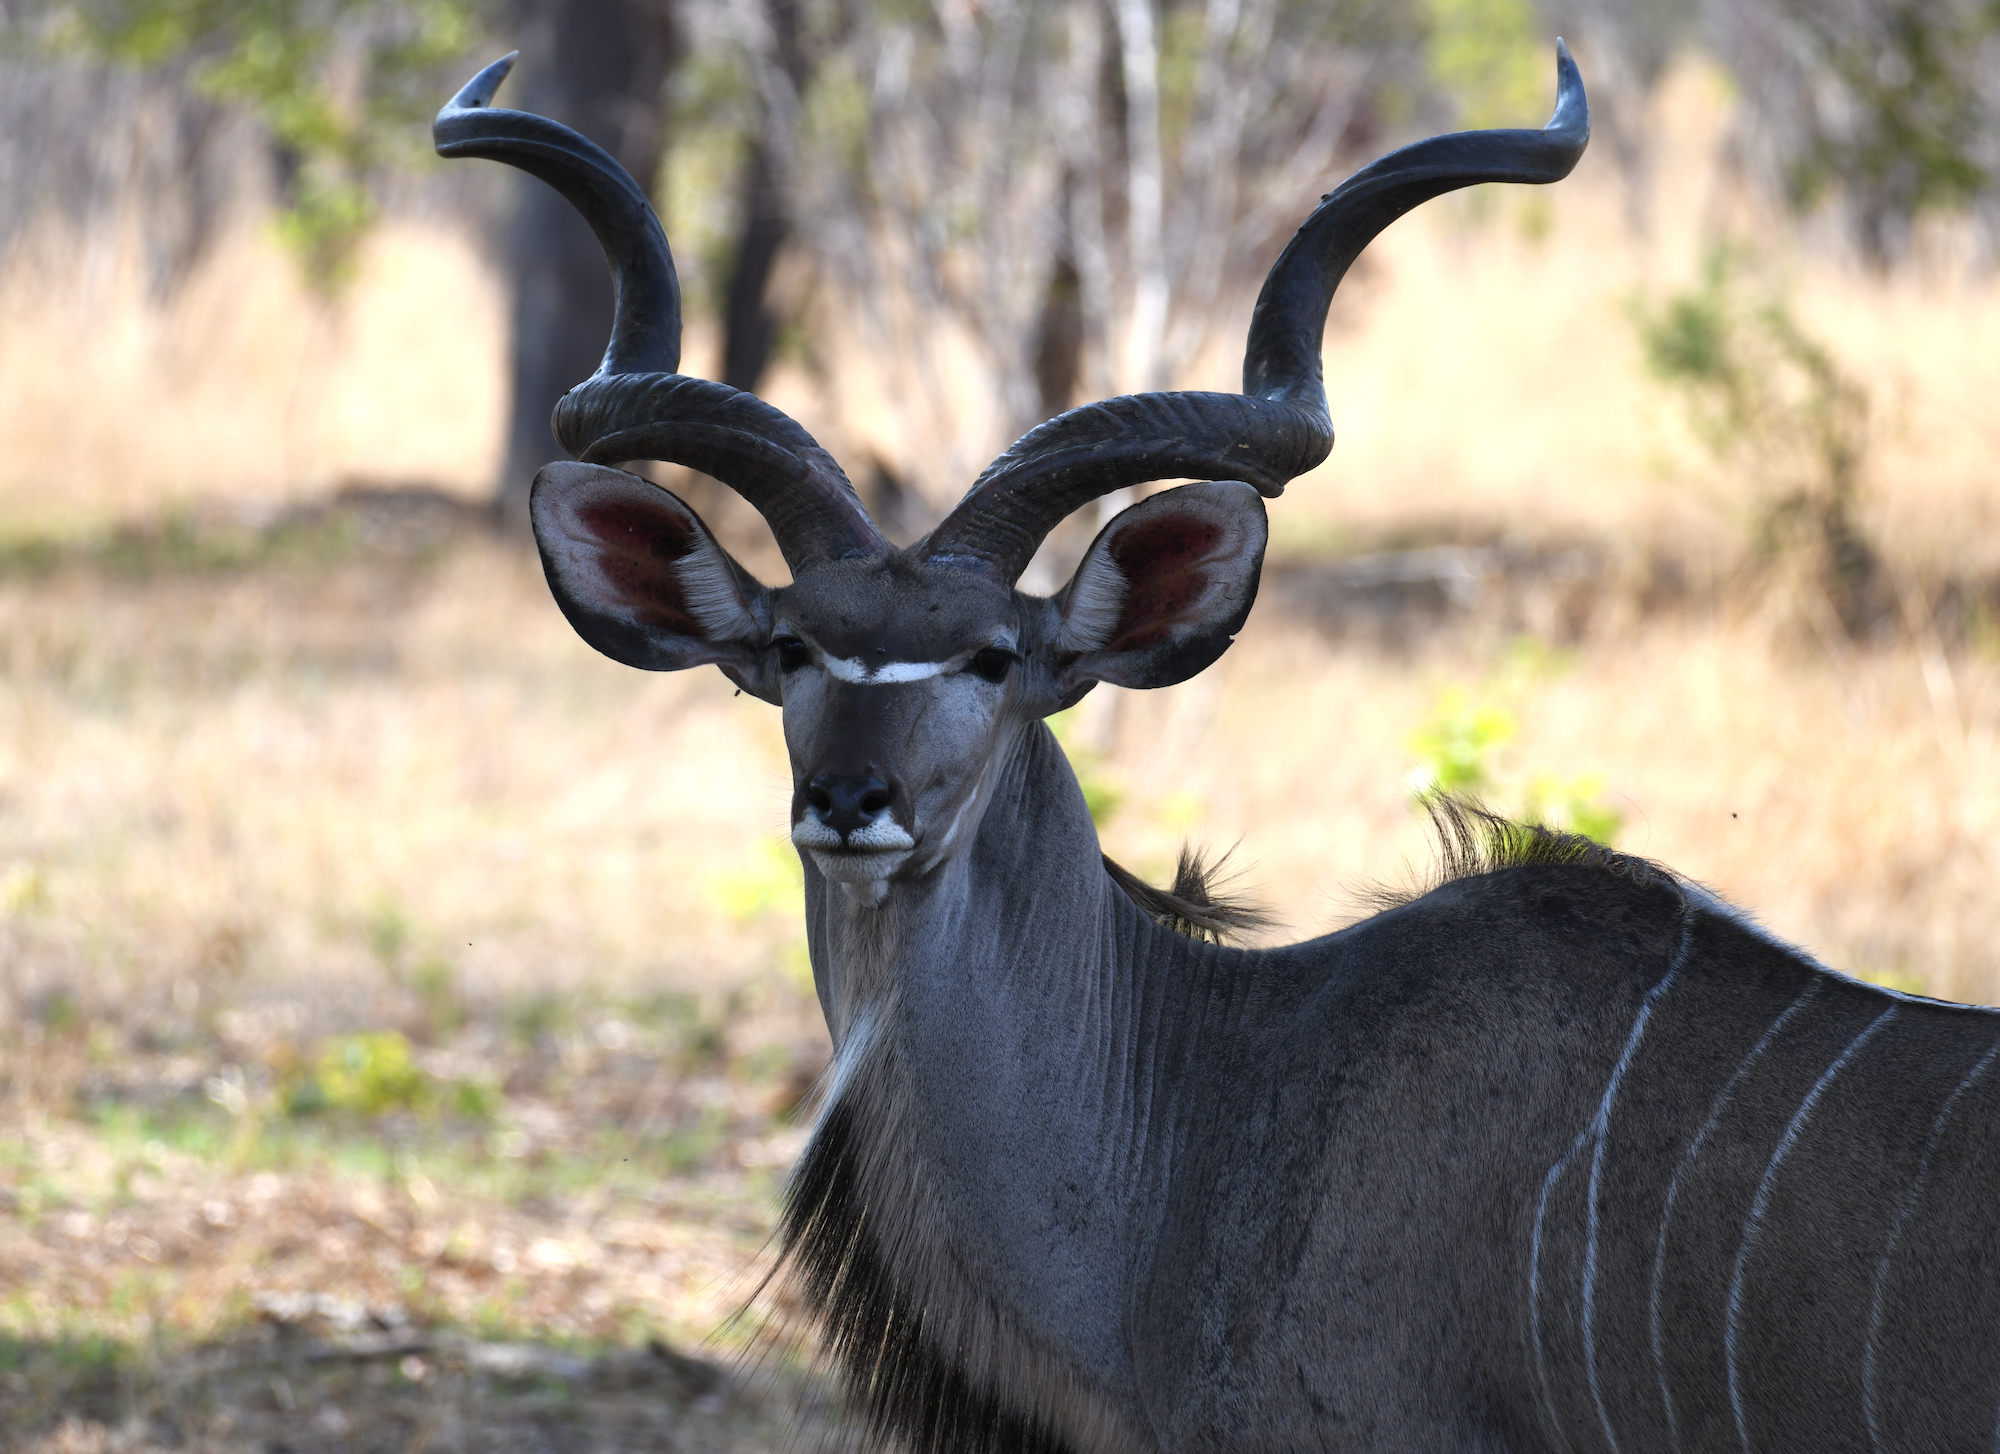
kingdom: Animalia
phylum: Chordata
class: Mammalia
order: Artiodactyla
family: Bovidae
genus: Tragelaphus
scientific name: Tragelaphus strepsiceros
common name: Greater kudu
